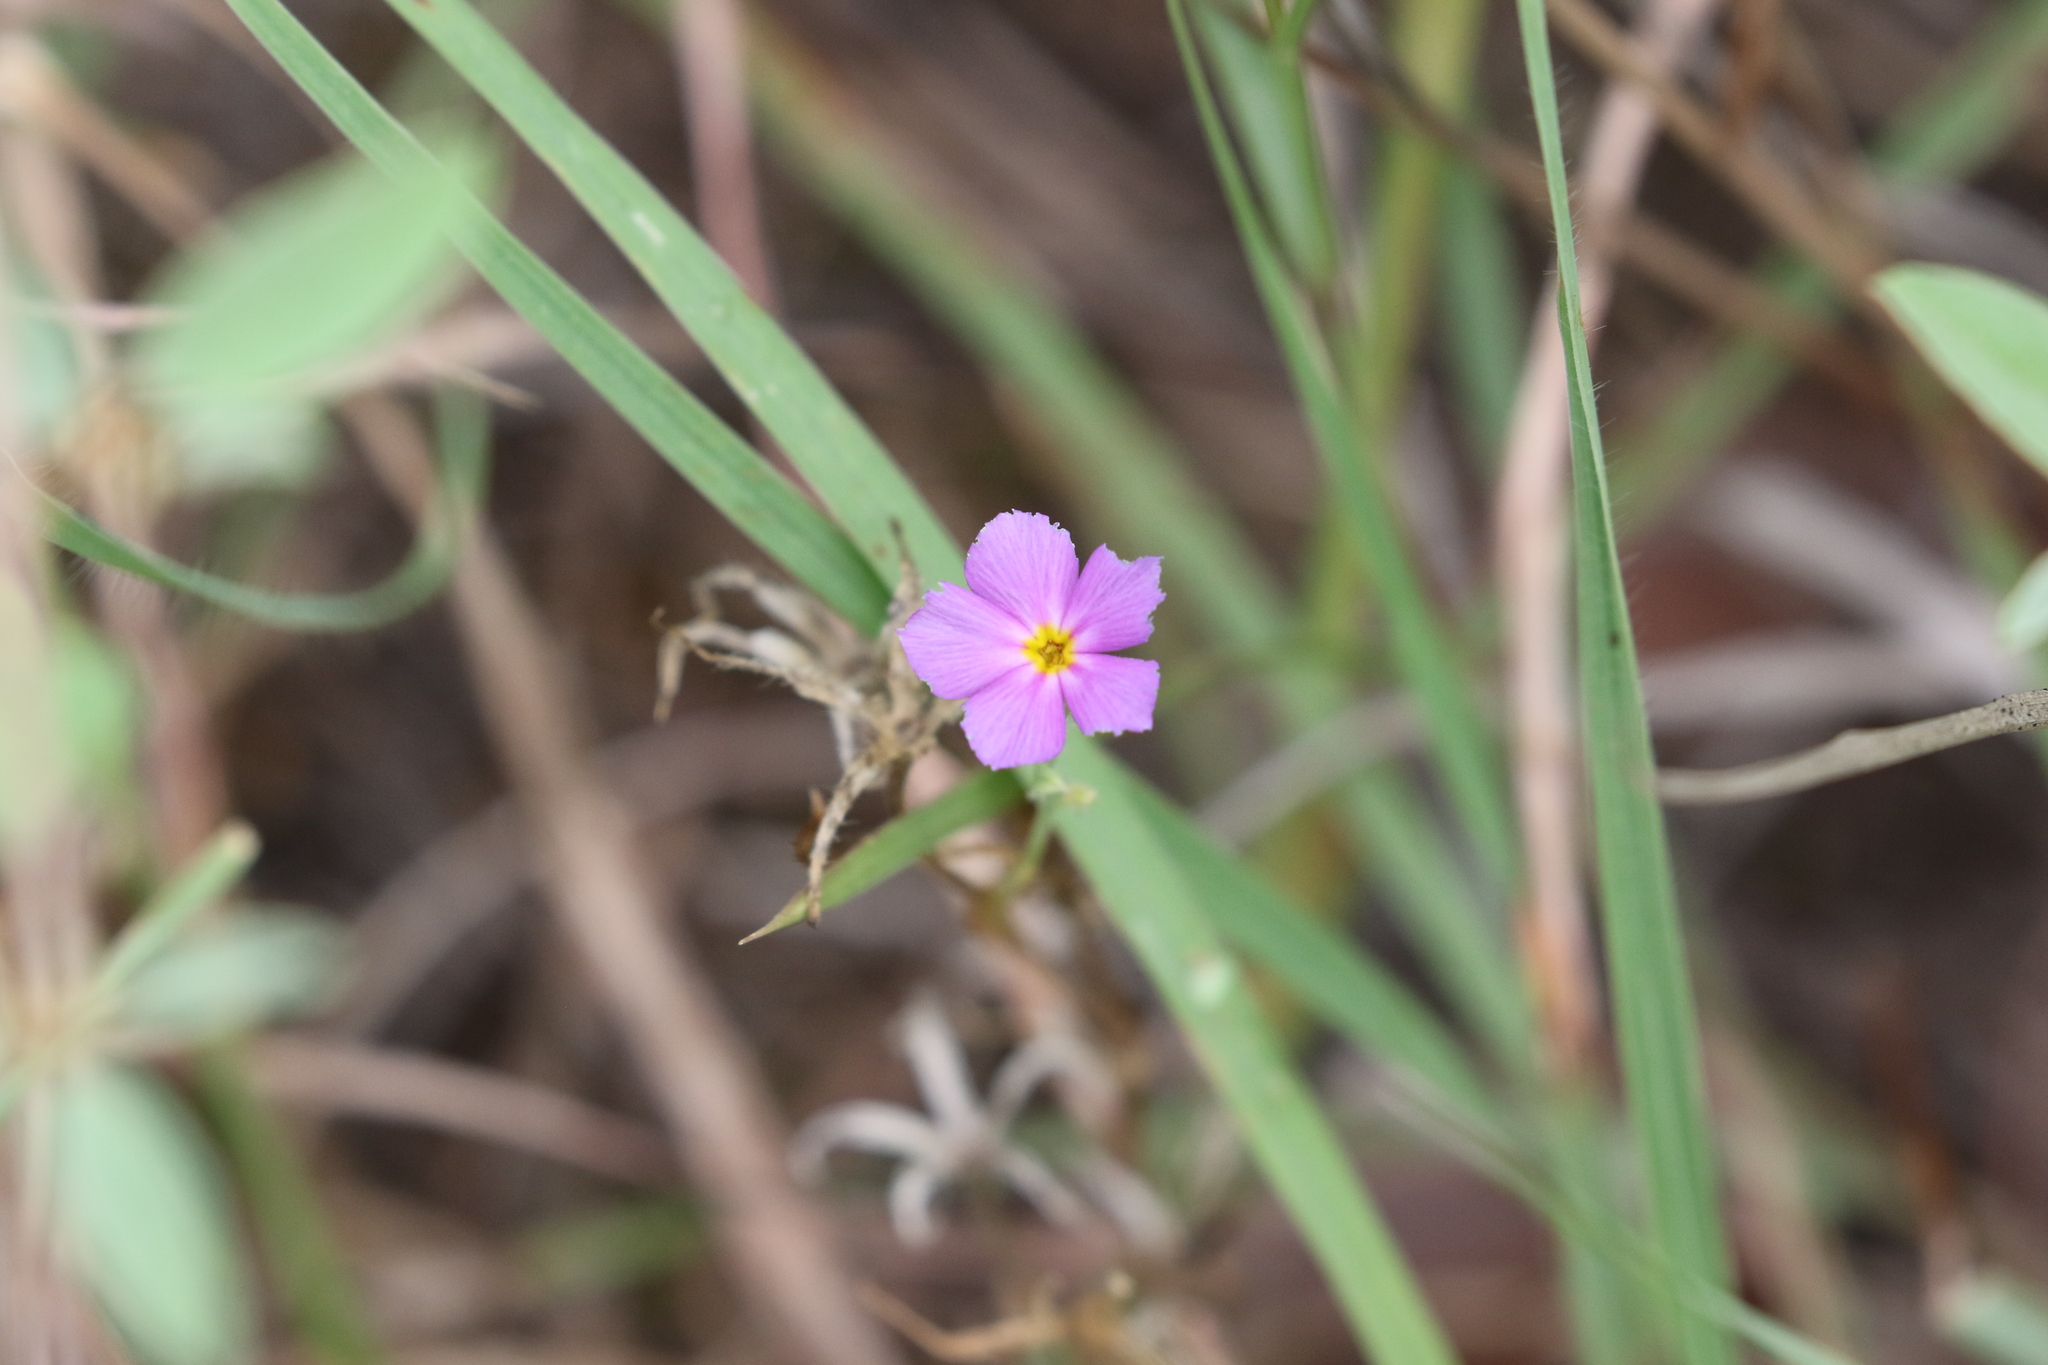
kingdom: Plantae
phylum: Tracheophyta
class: Magnoliopsida
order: Ericales
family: Polemoniaceae
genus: Phlox
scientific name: Phlox roemeriana
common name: Roemer's phlox
